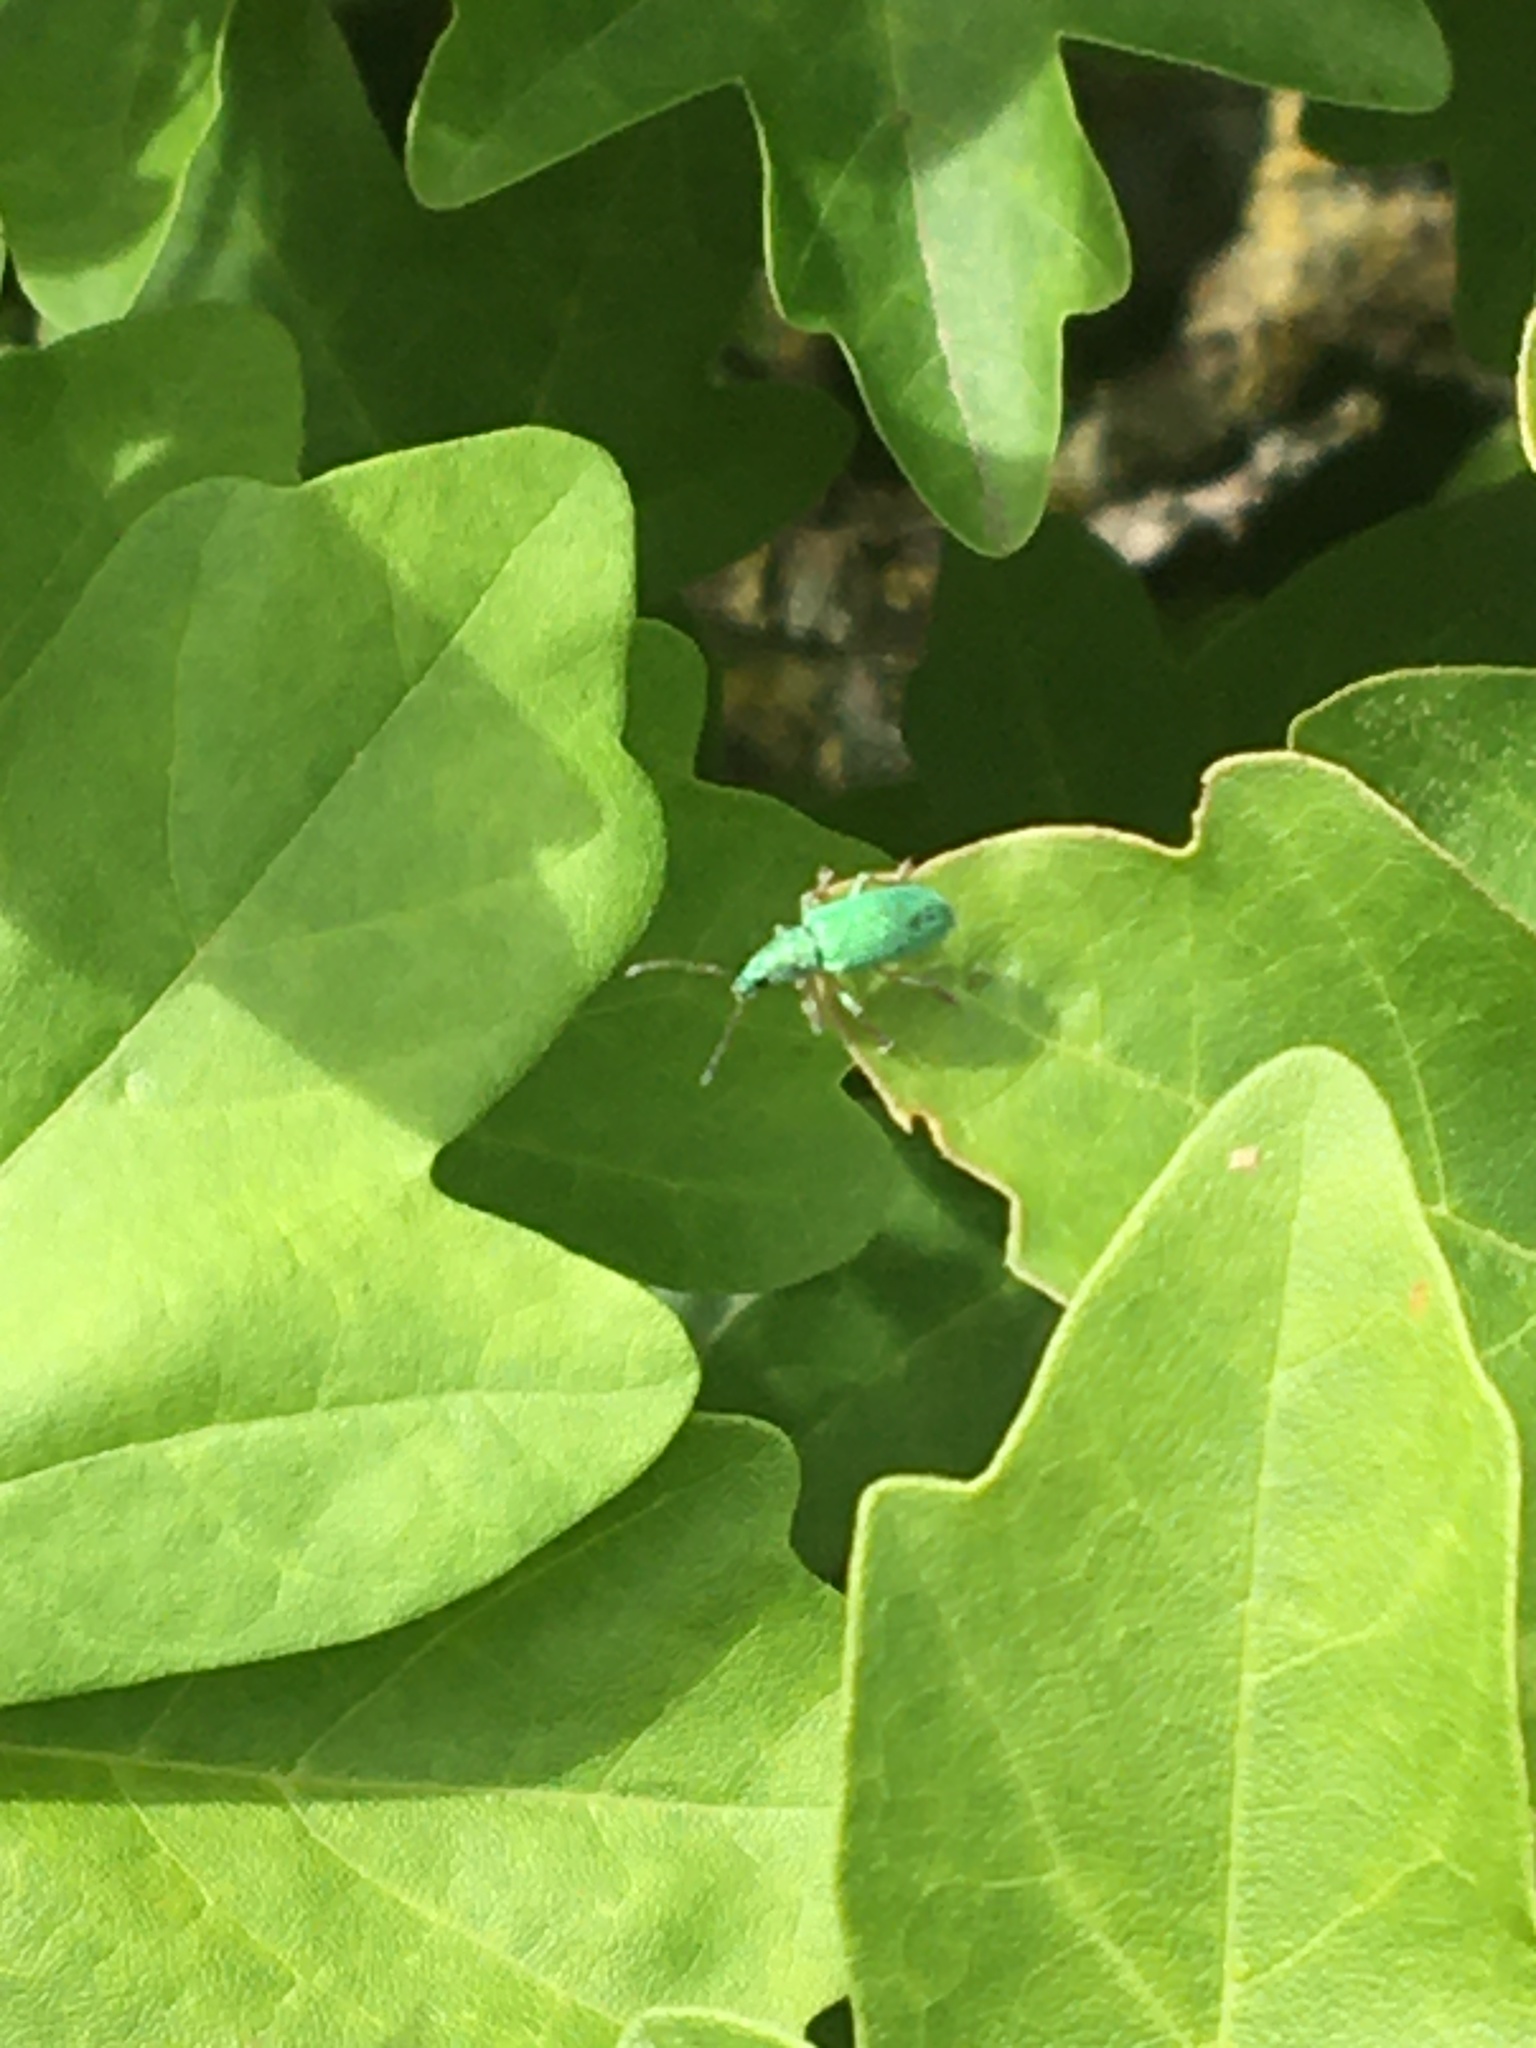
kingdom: Animalia
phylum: Arthropoda
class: Insecta
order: Coleoptera
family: Curculionidae
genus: Polydrusus
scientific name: Polydrusus formosus
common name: Weevil
